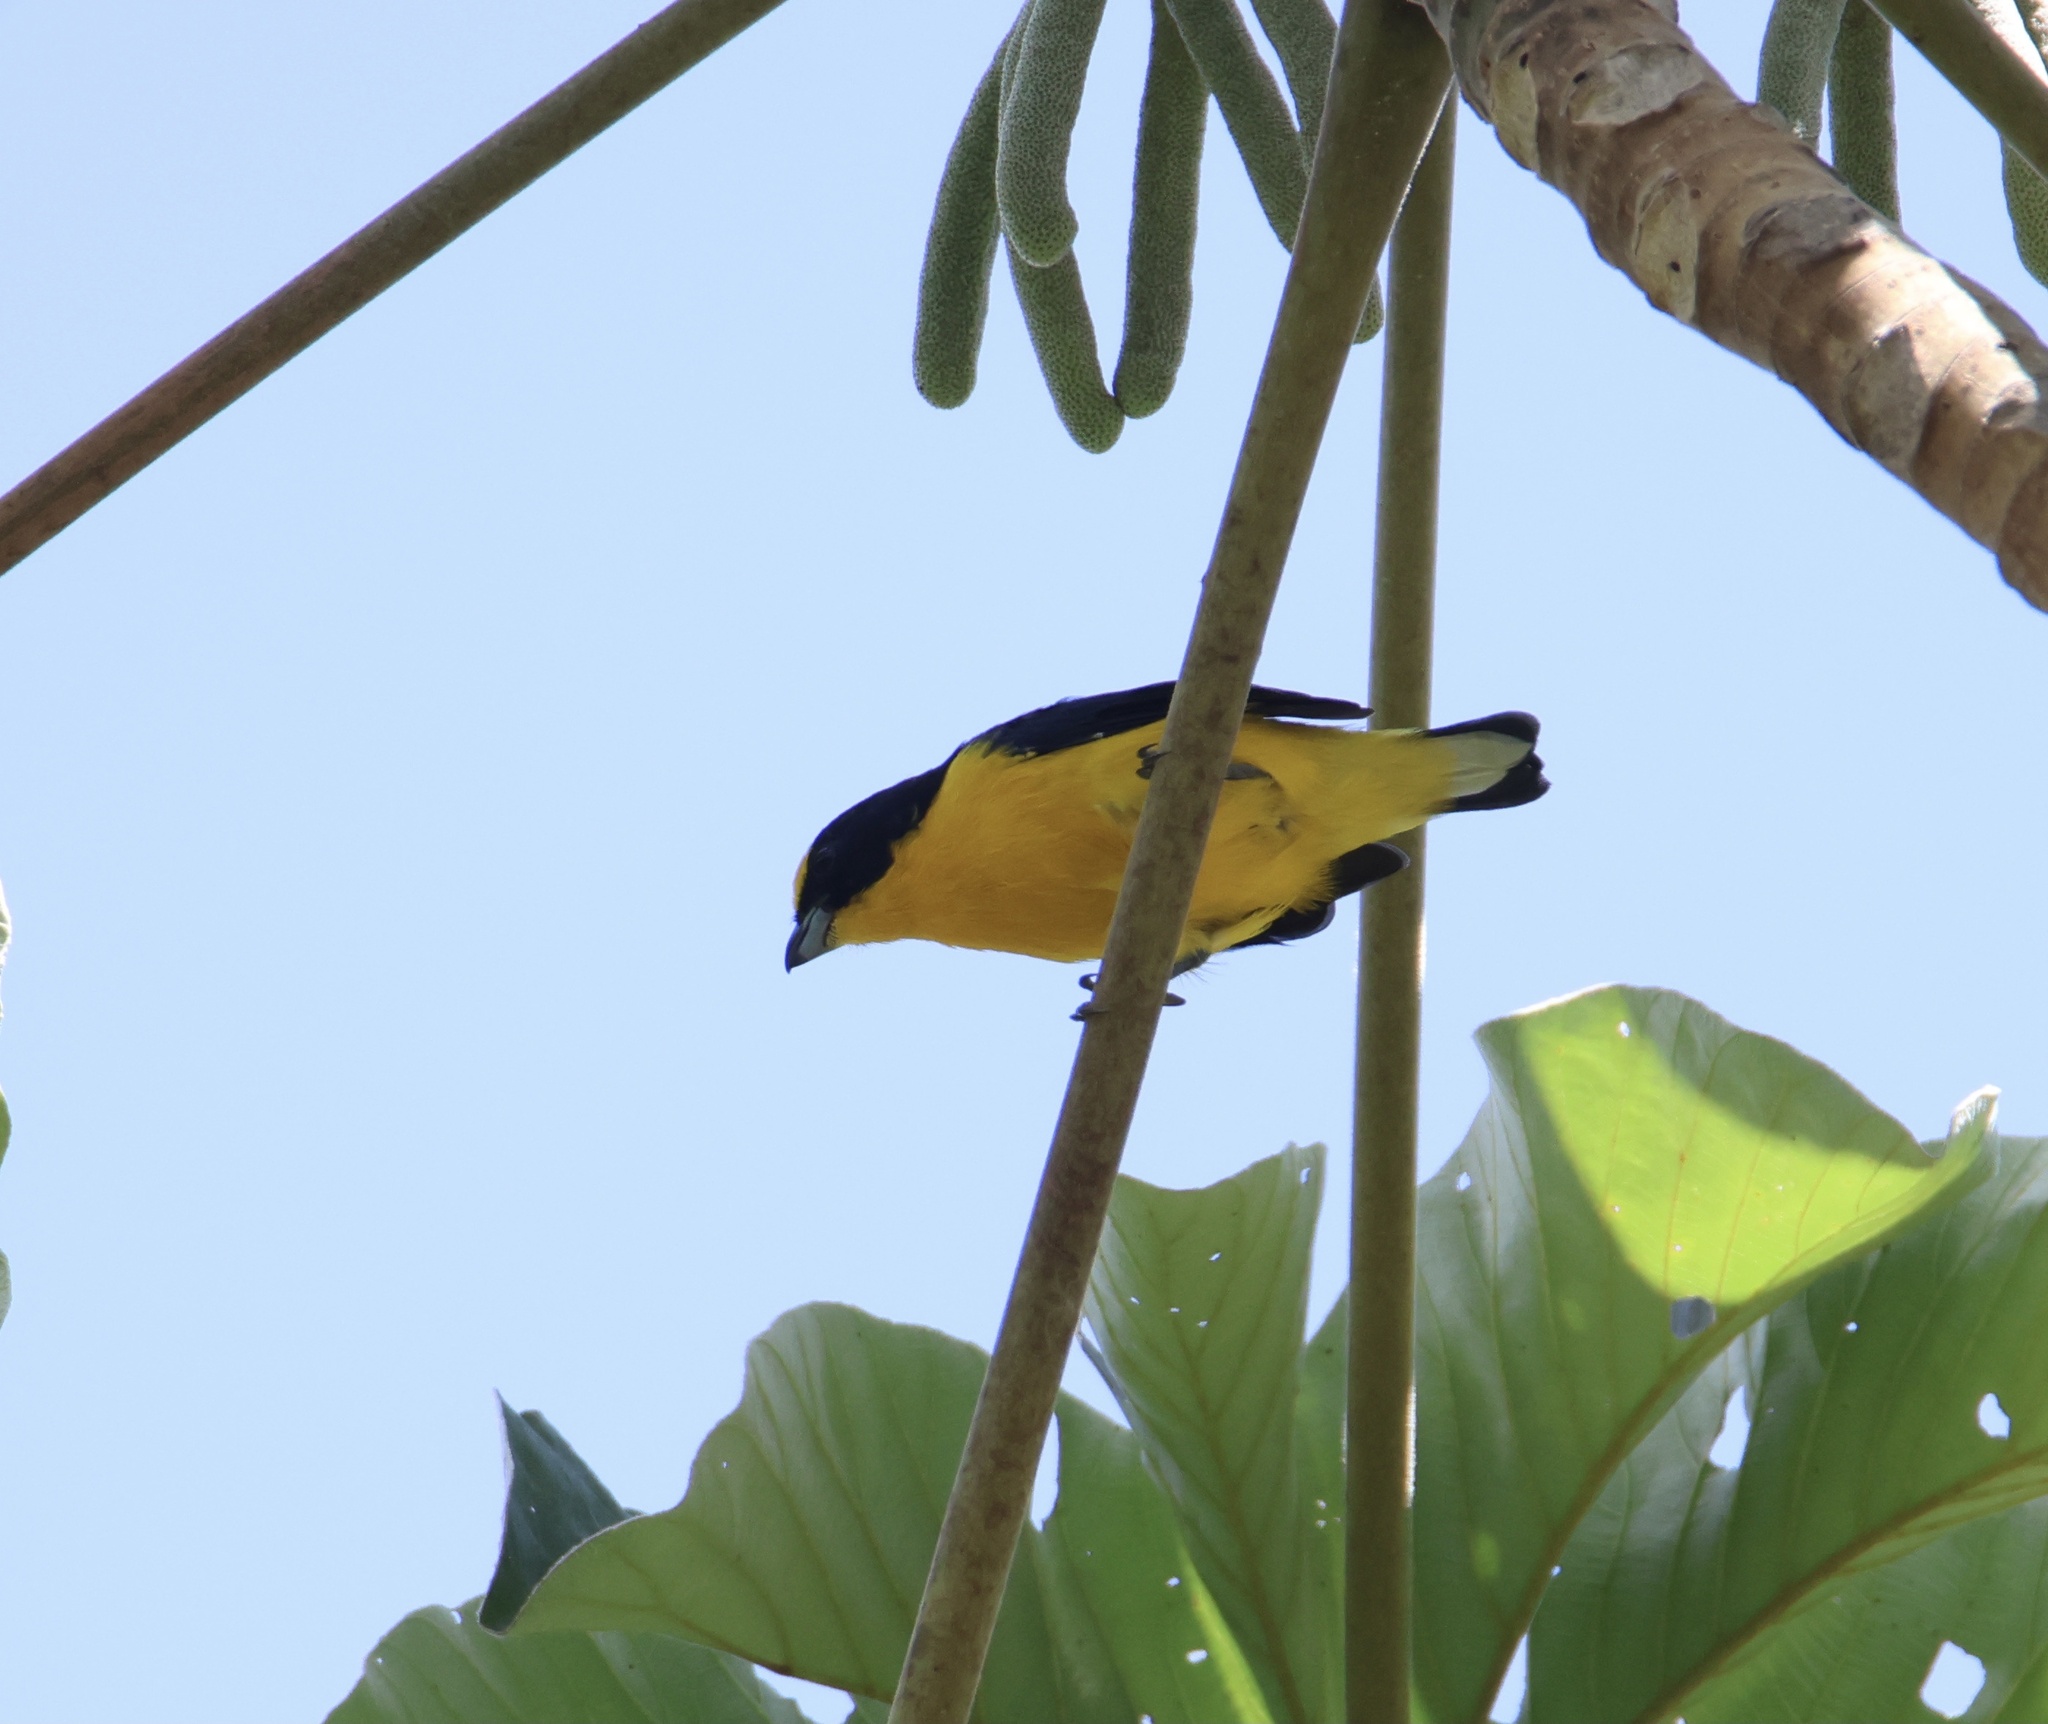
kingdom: Animalia
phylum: Chordata
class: Aves
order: Passeriformes
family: Fringillidae
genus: Euphonia
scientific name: Euphonia laniirostris
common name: Thick-billed euphonia
